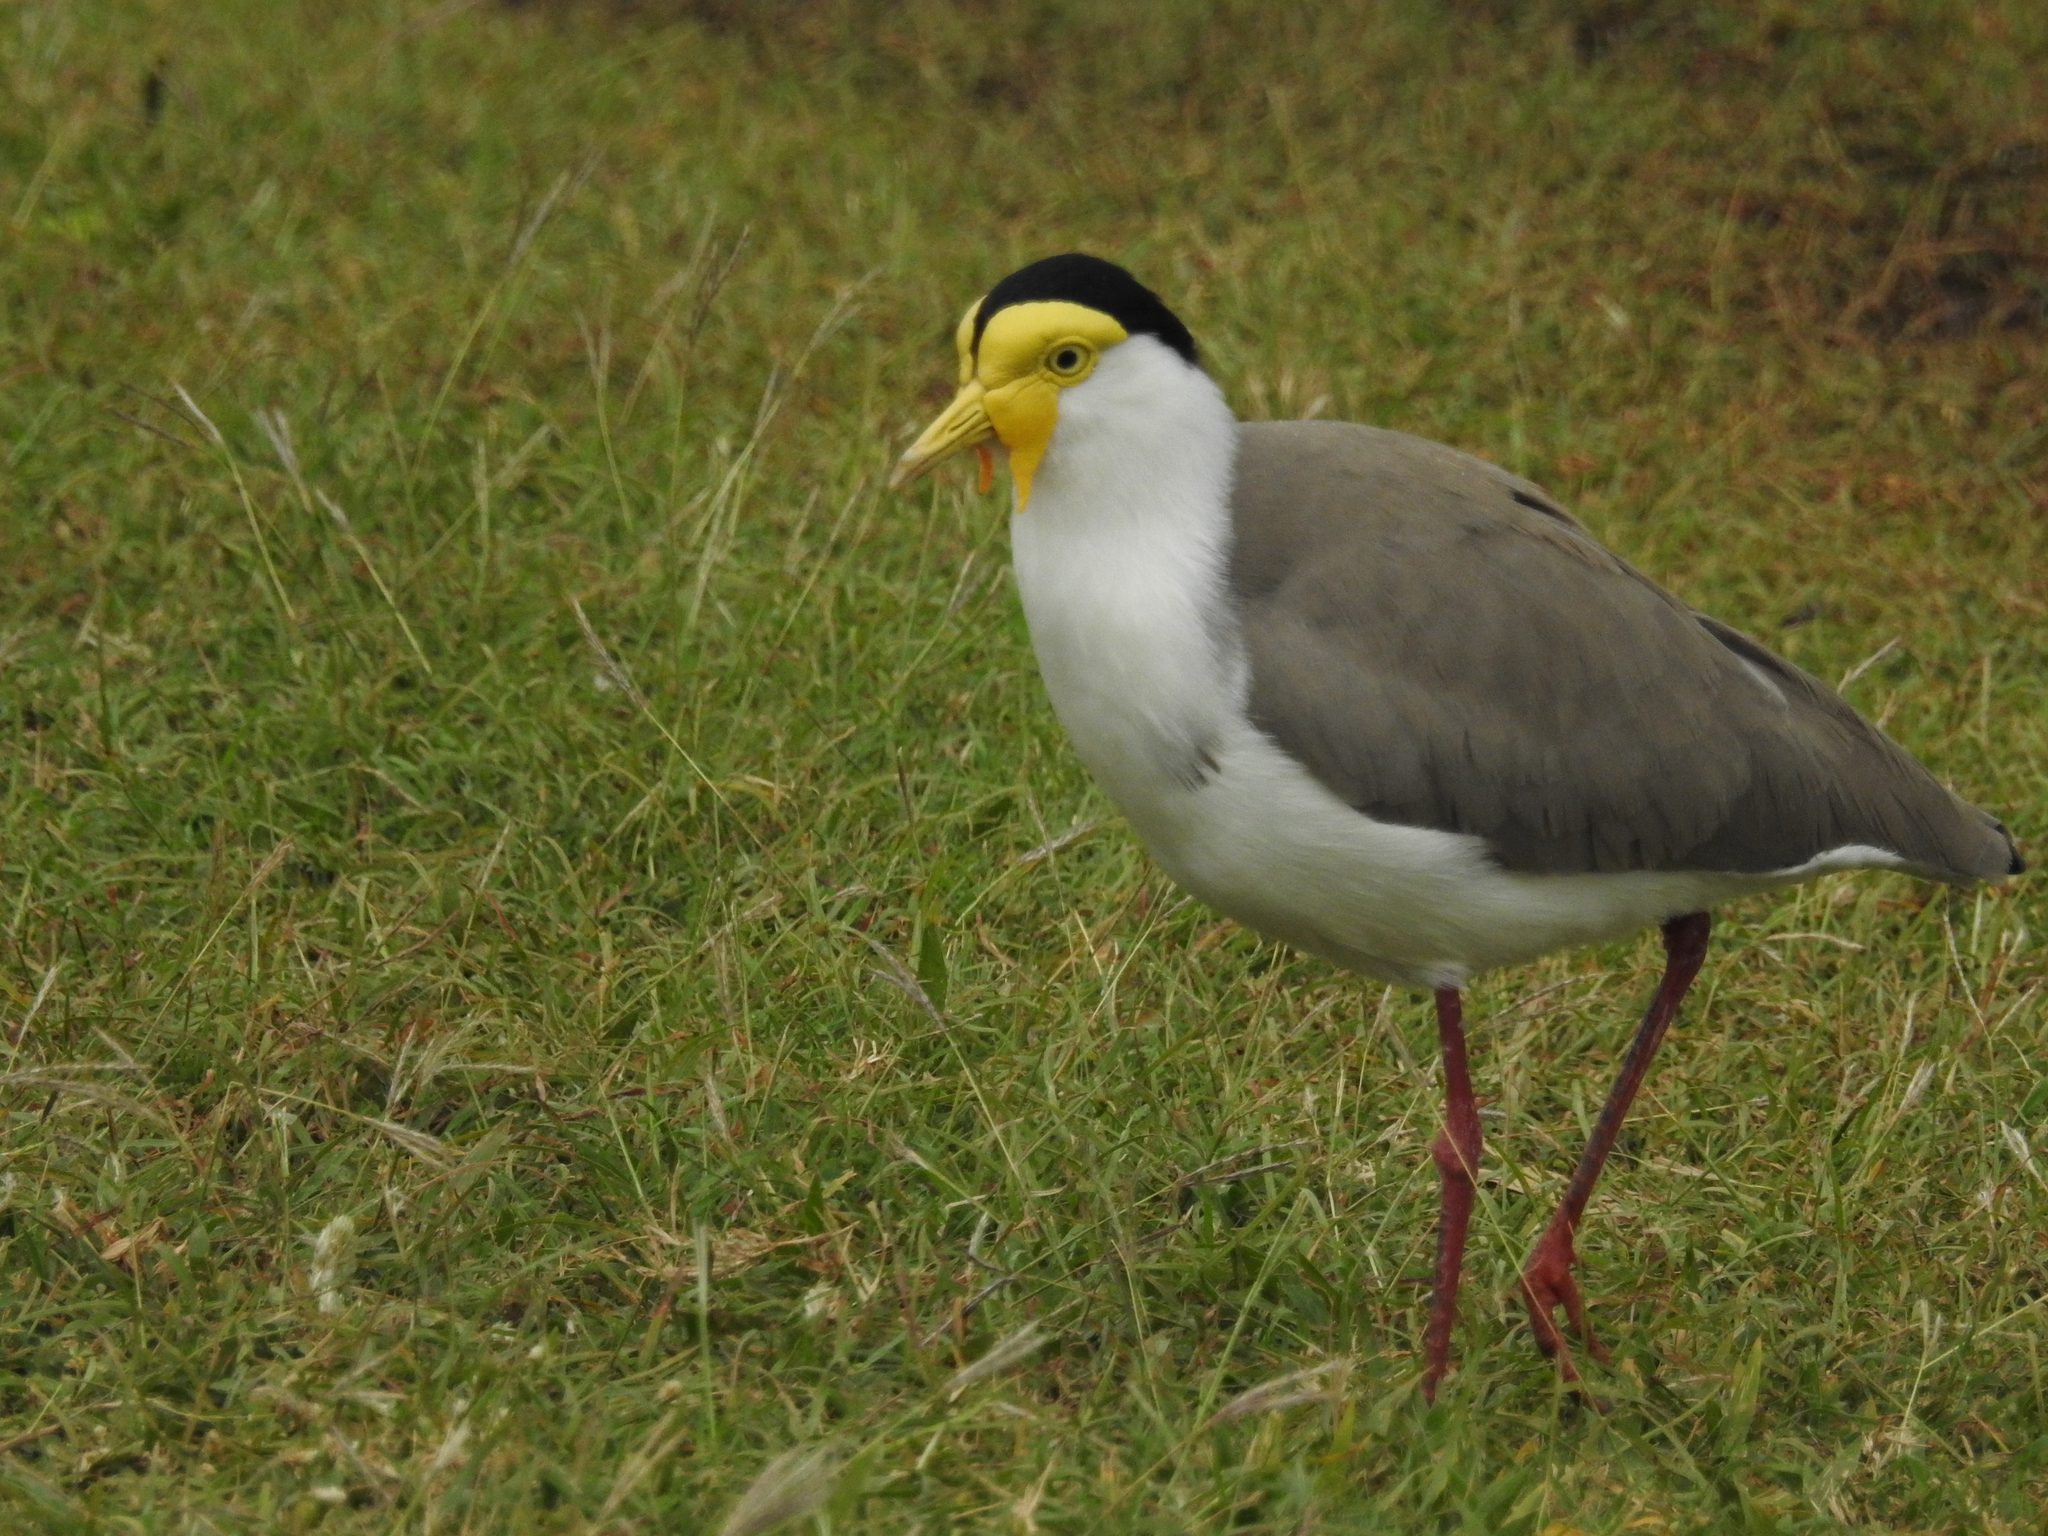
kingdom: Animalia
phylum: Chordata
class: Aves
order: Charadriiformes
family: Charadriidae
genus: Vanellus
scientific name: Vanellus miles
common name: Masked lapwing
